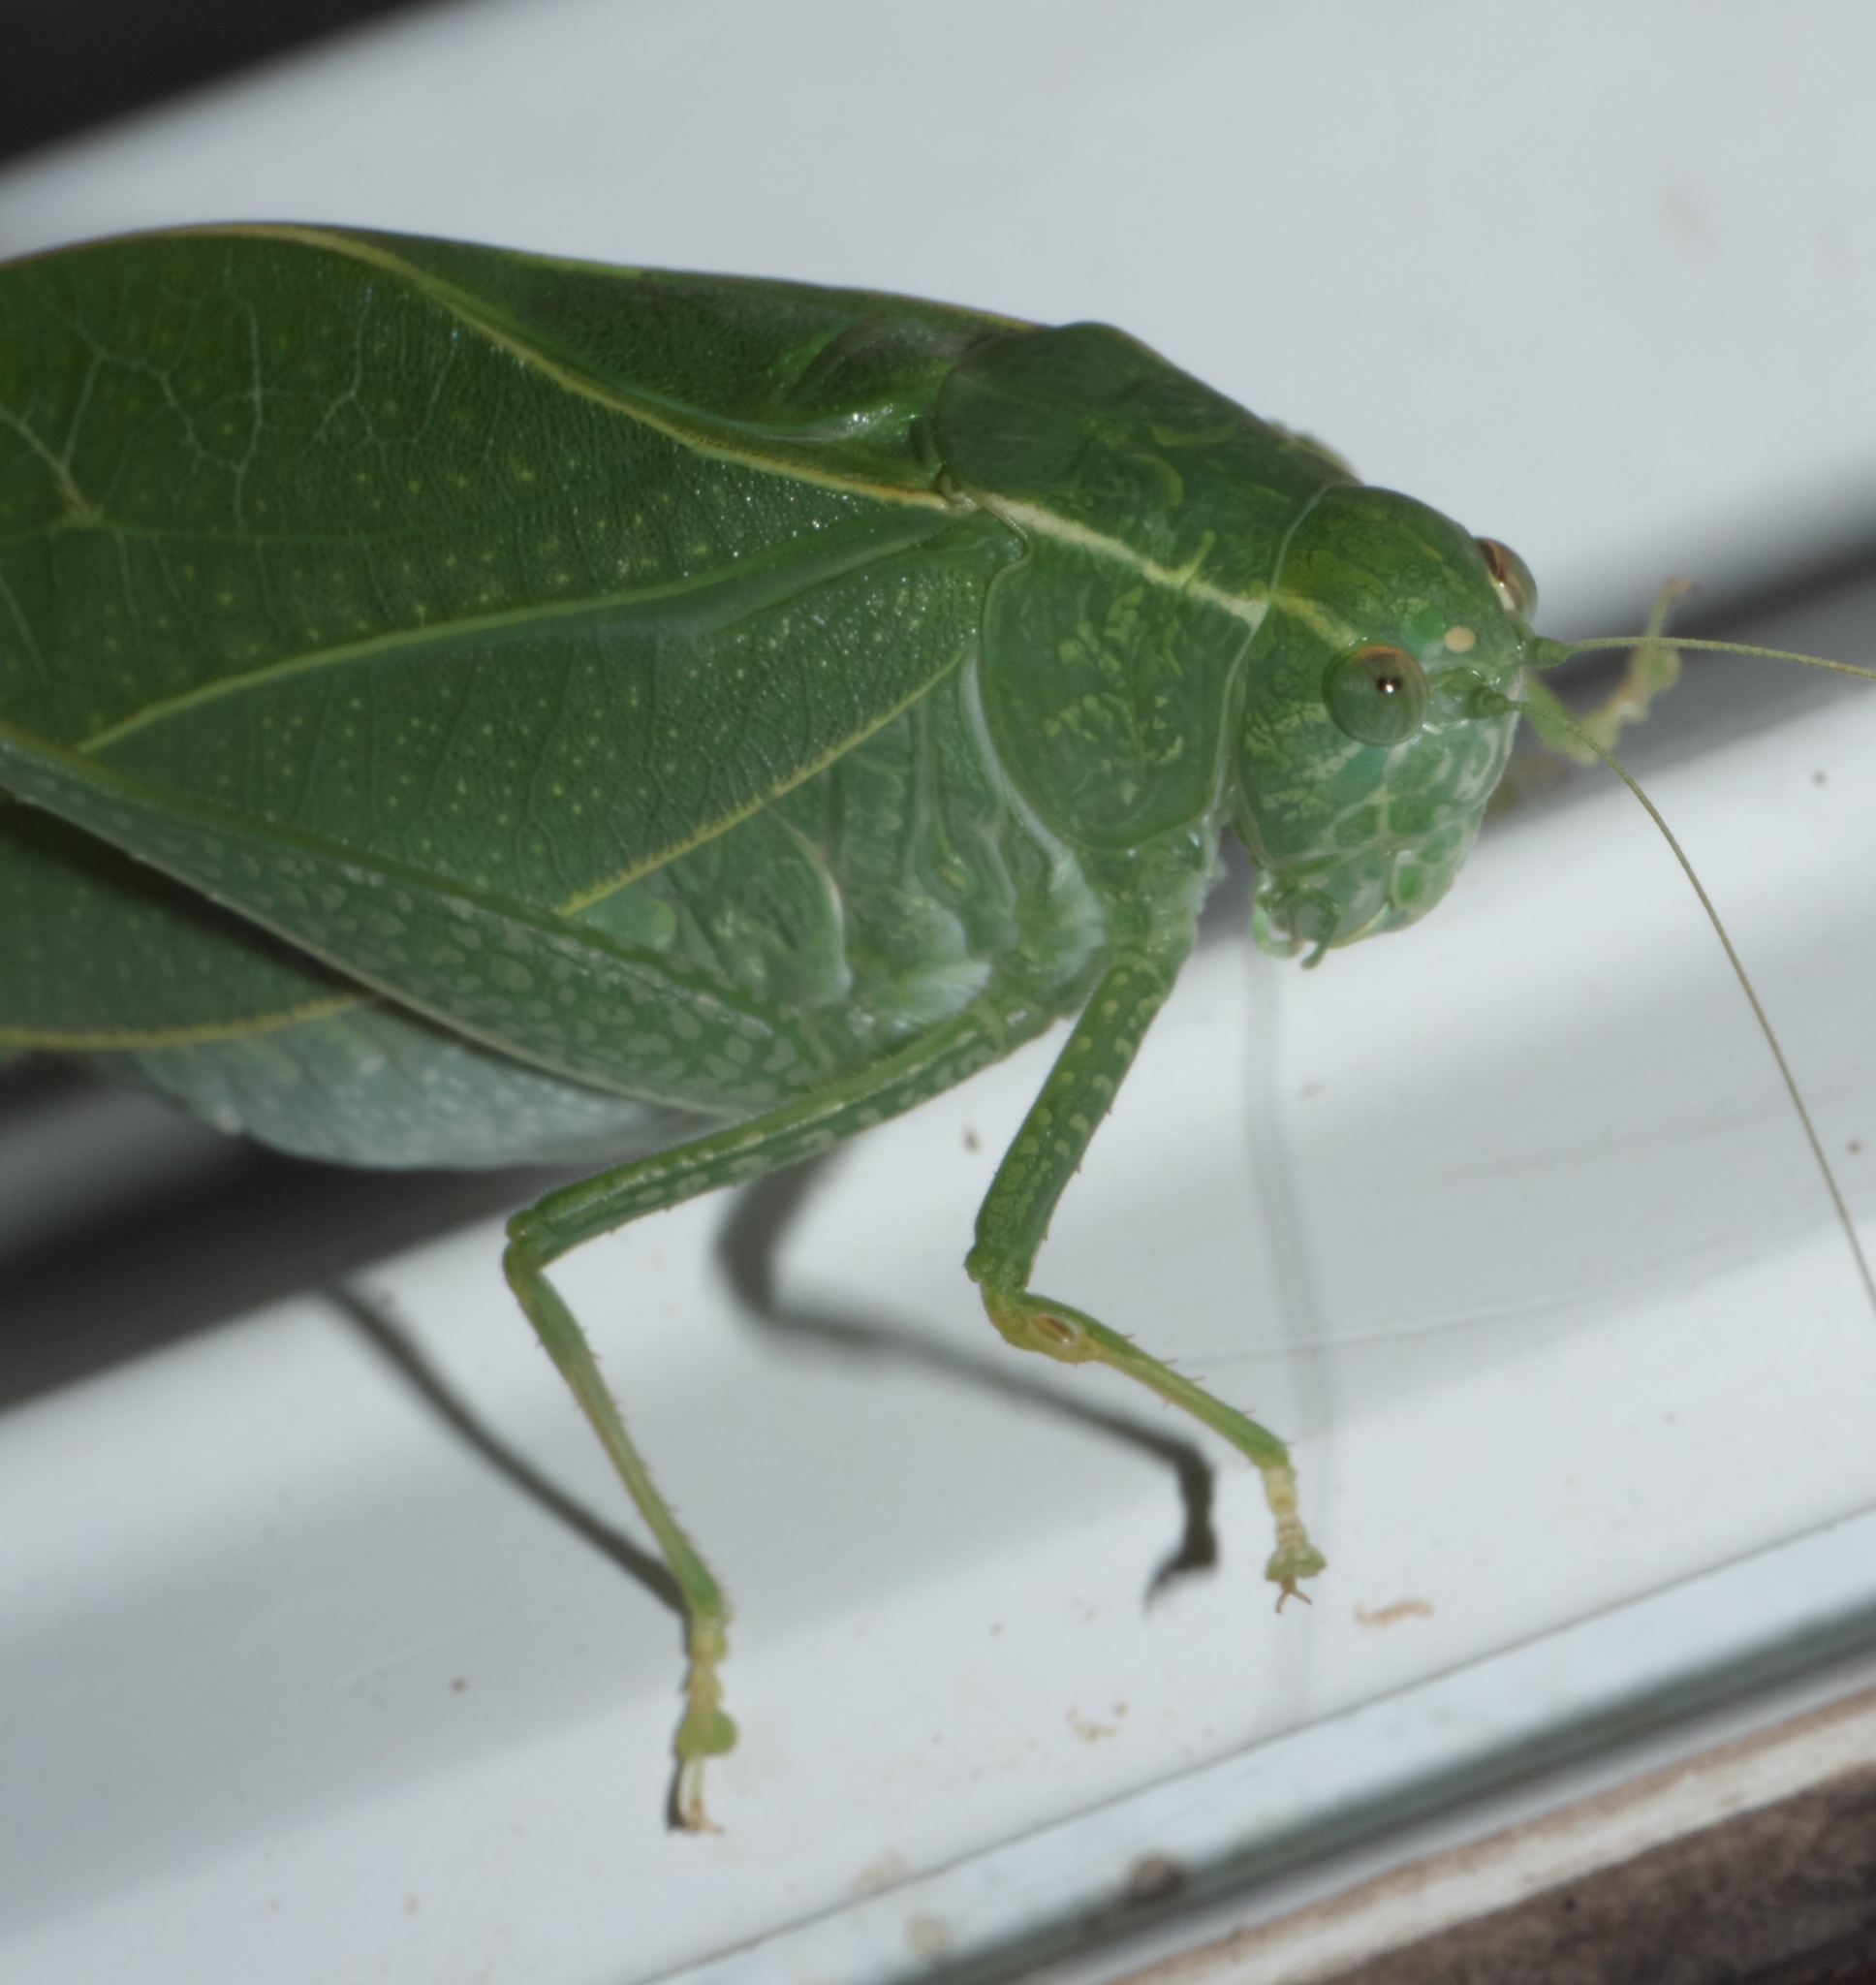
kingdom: Animalia
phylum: Arthropoda
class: Insecta
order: Orthoptera
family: Tettigoniidae
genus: Microcentrum
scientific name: Microcentrum rhombifolium
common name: Broad-winged katydid
